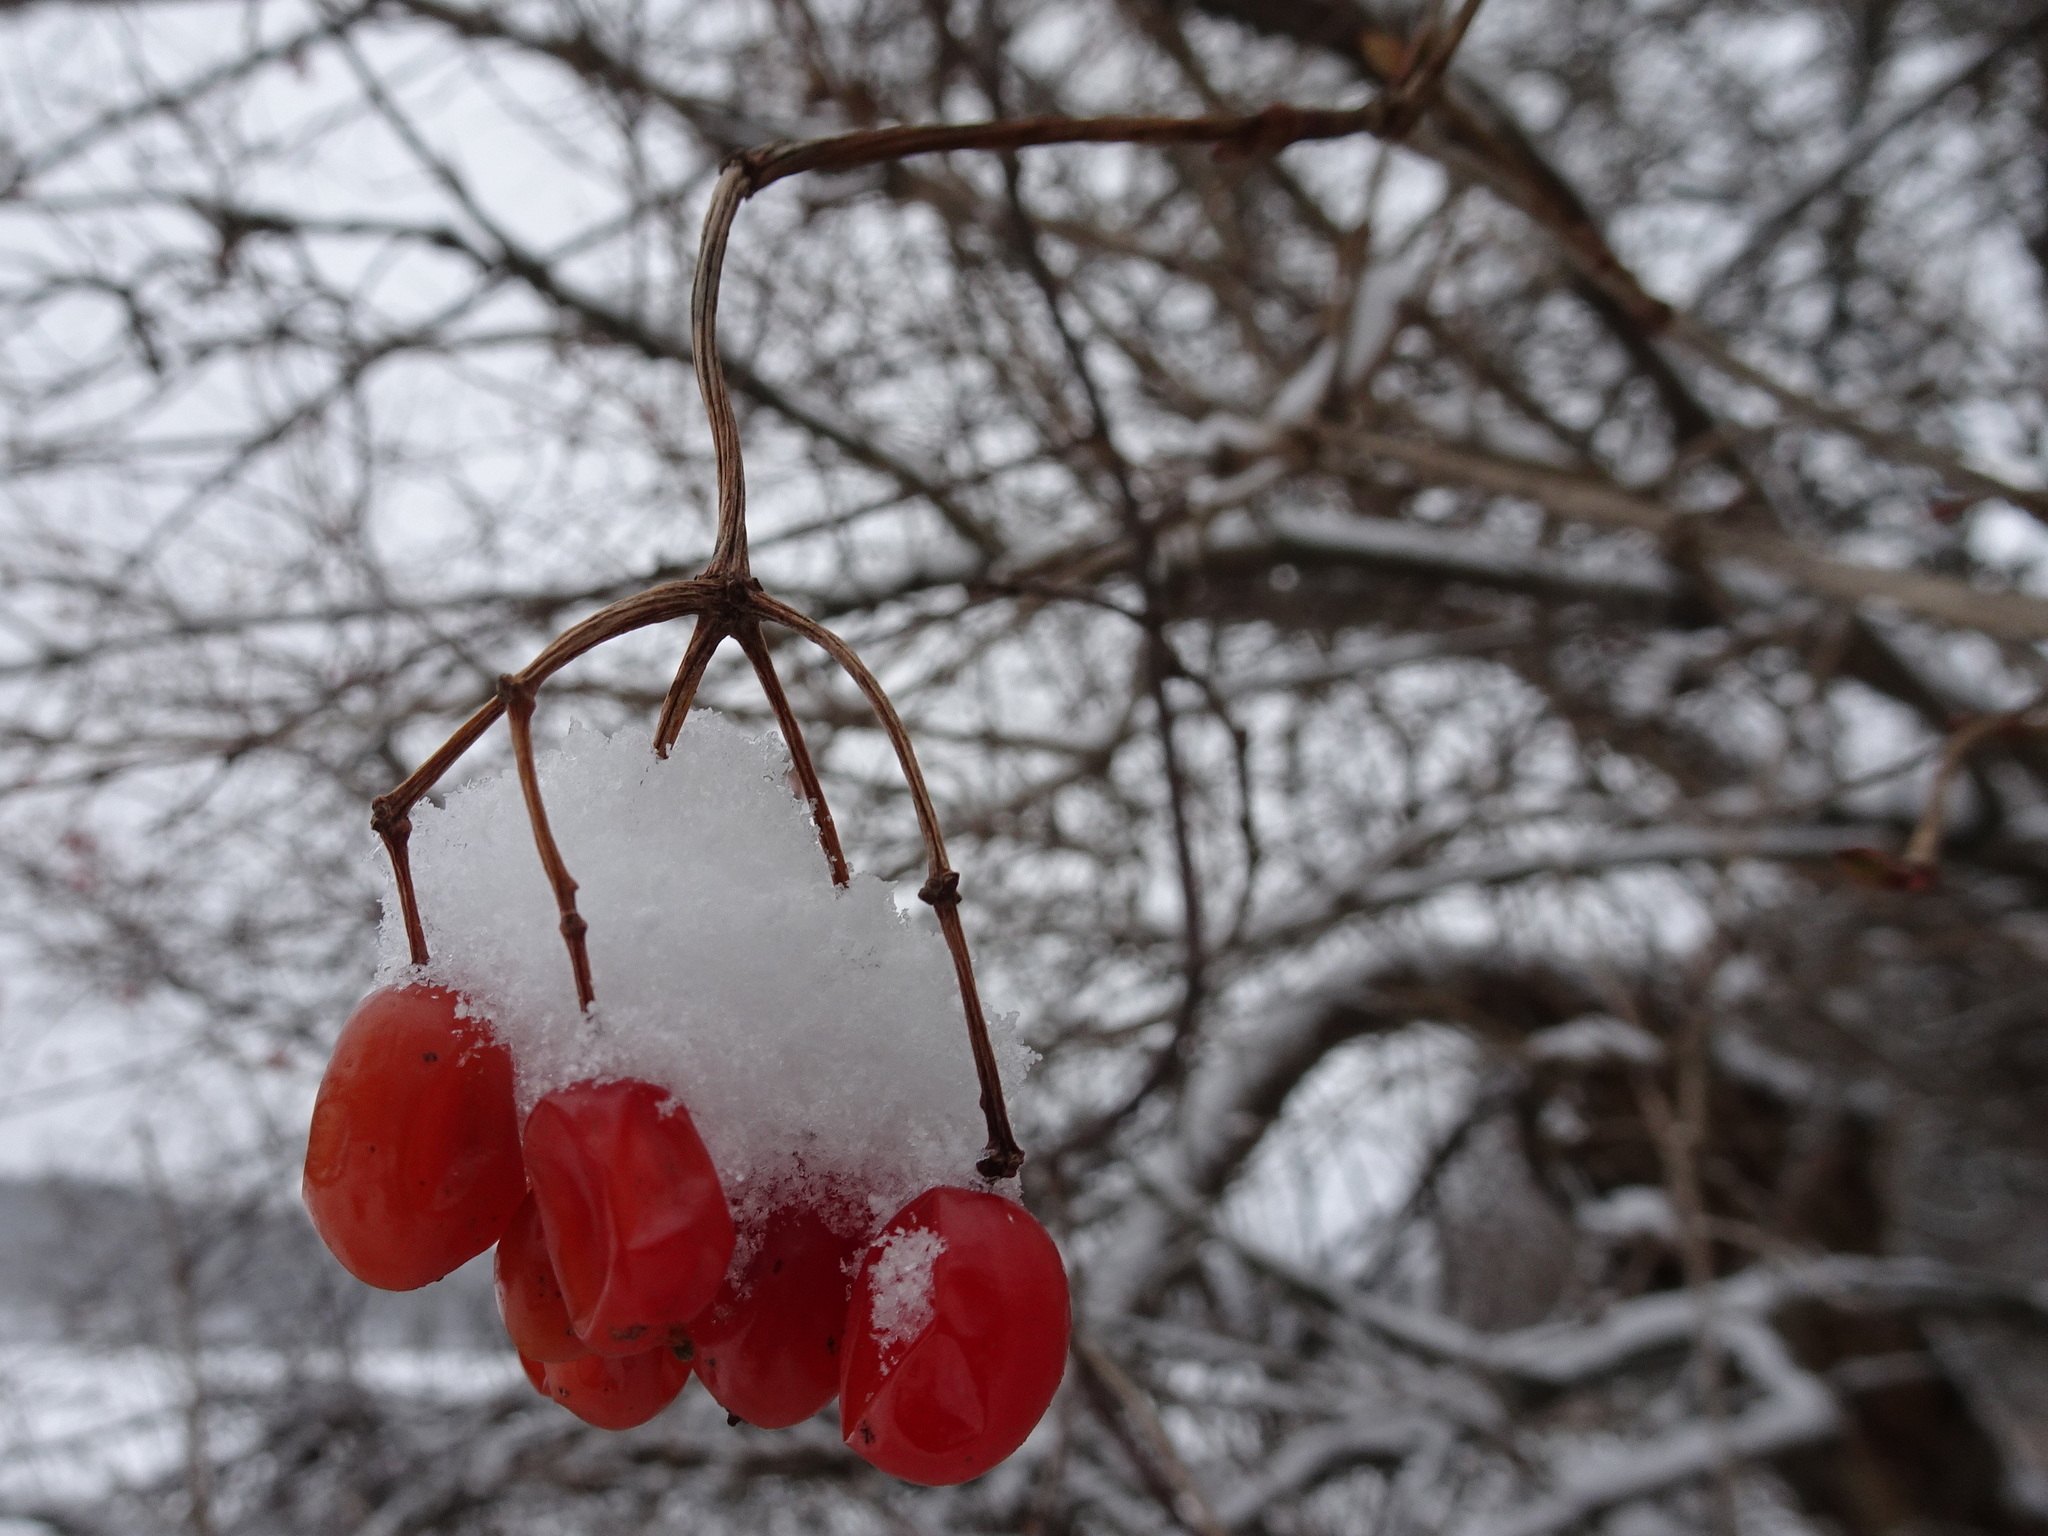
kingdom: Plantae
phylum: Tracheophyta
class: Magnoliopsida
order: Dipsacales
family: Viburnaceae
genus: Viburnum
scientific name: Viburnum opulus
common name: Guelder-rose
